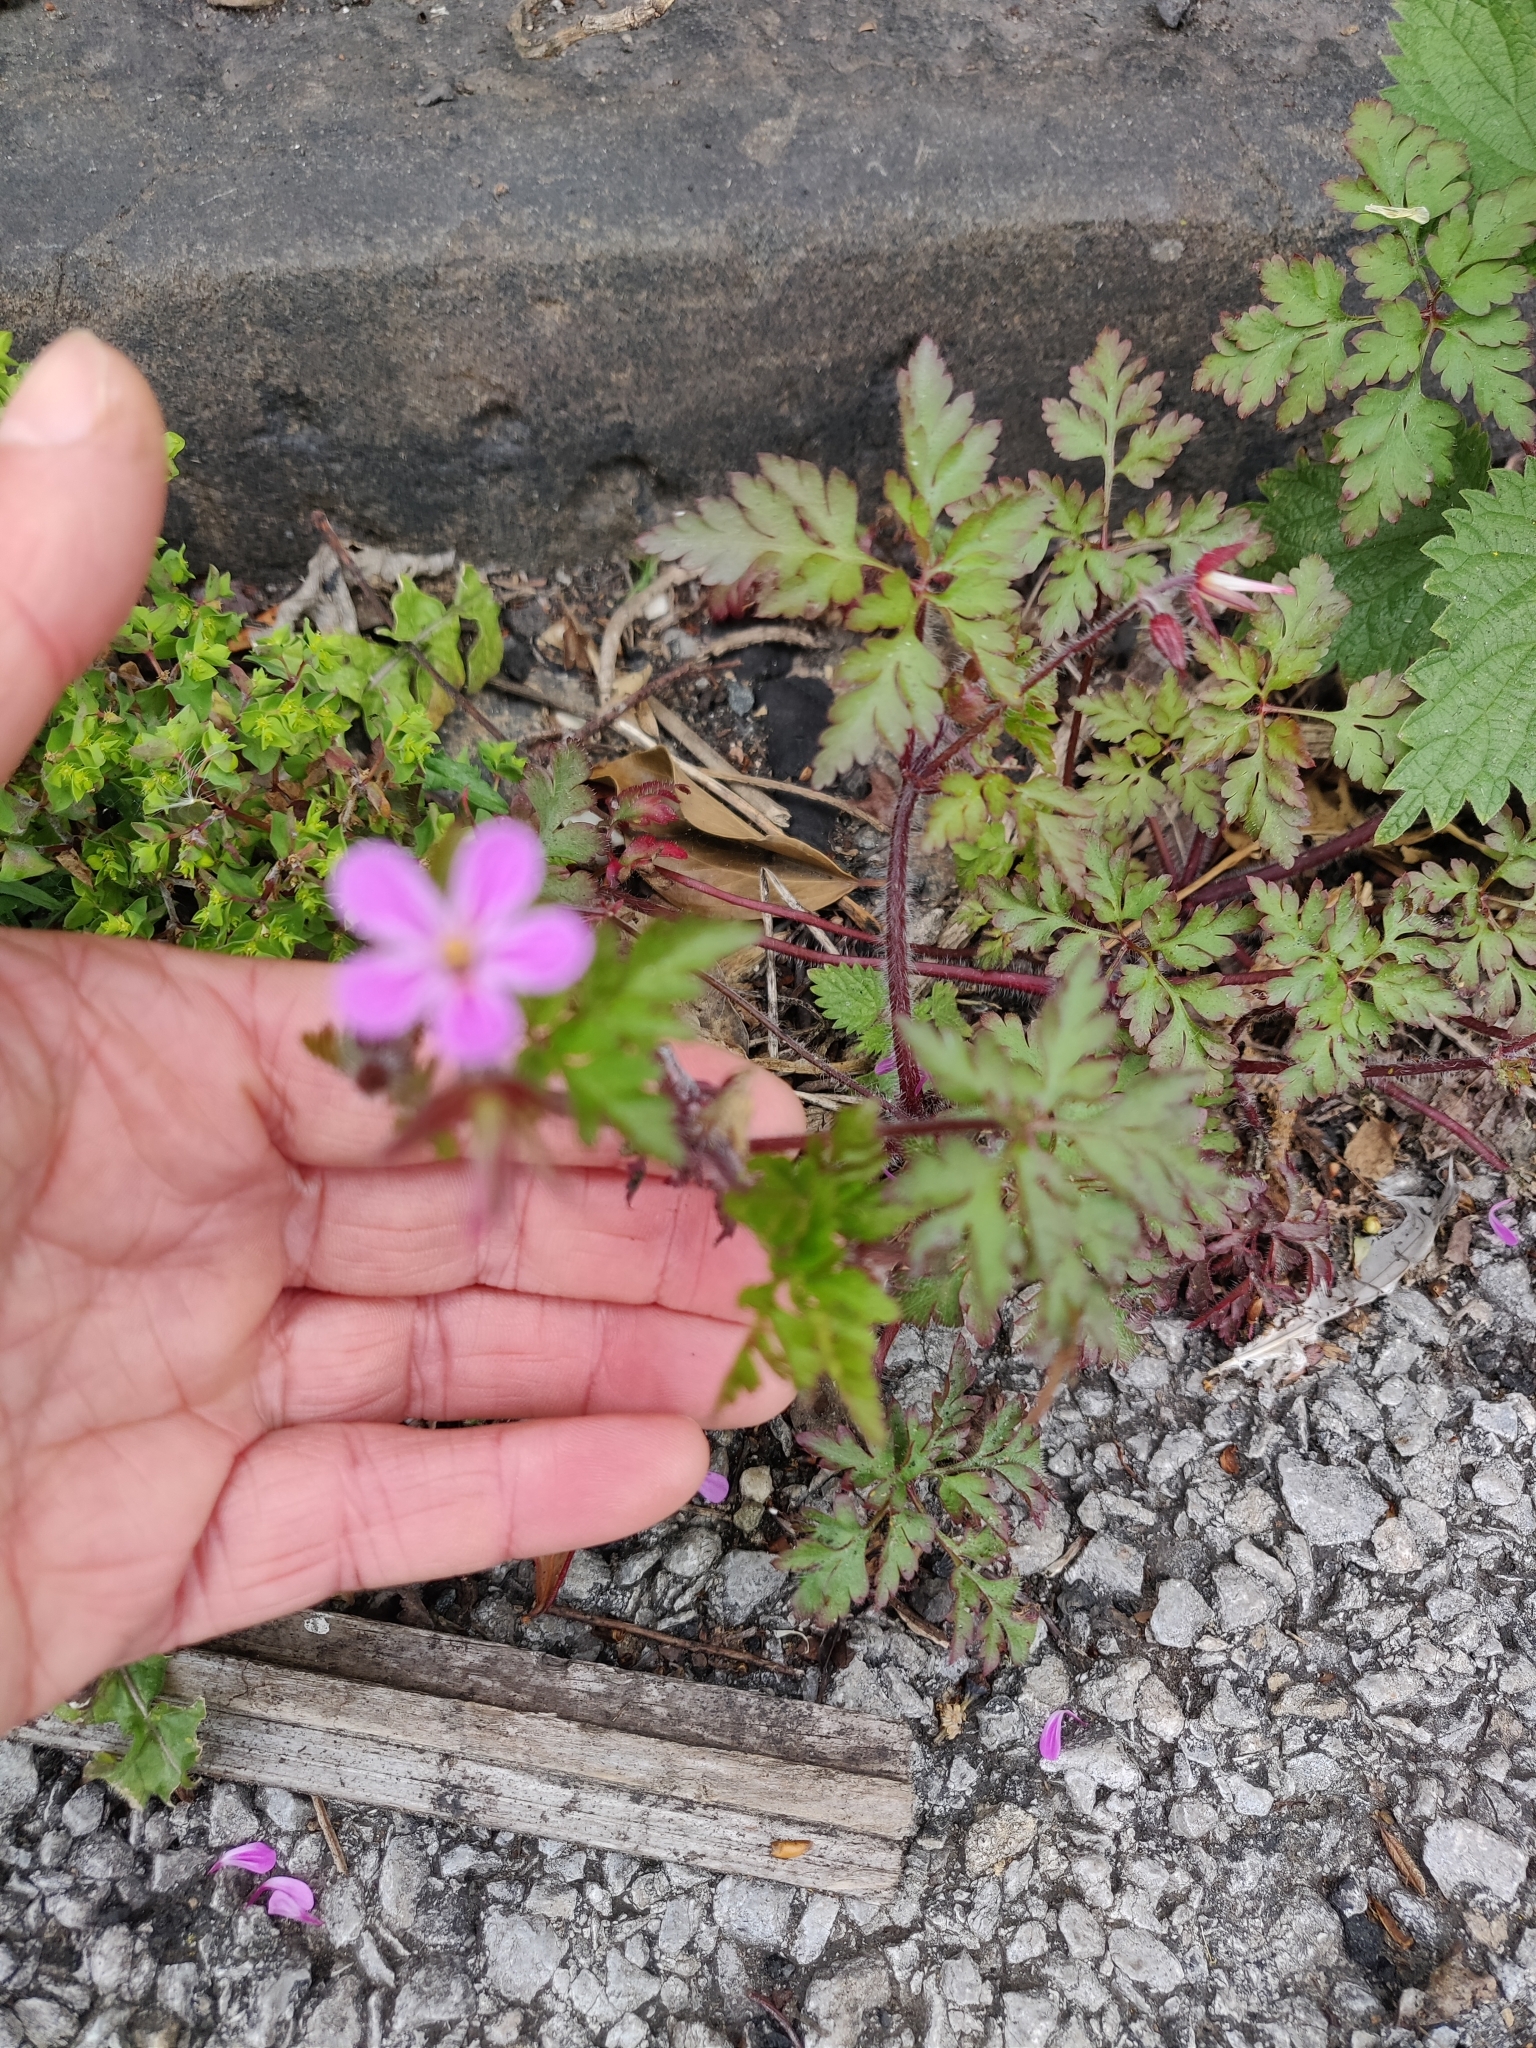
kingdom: Plantae
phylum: Tracheophyta
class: Magnoliopsida
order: Geraniales
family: Geraniaceae
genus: Geranium
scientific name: Geranium robertianum
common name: Herb-robert
